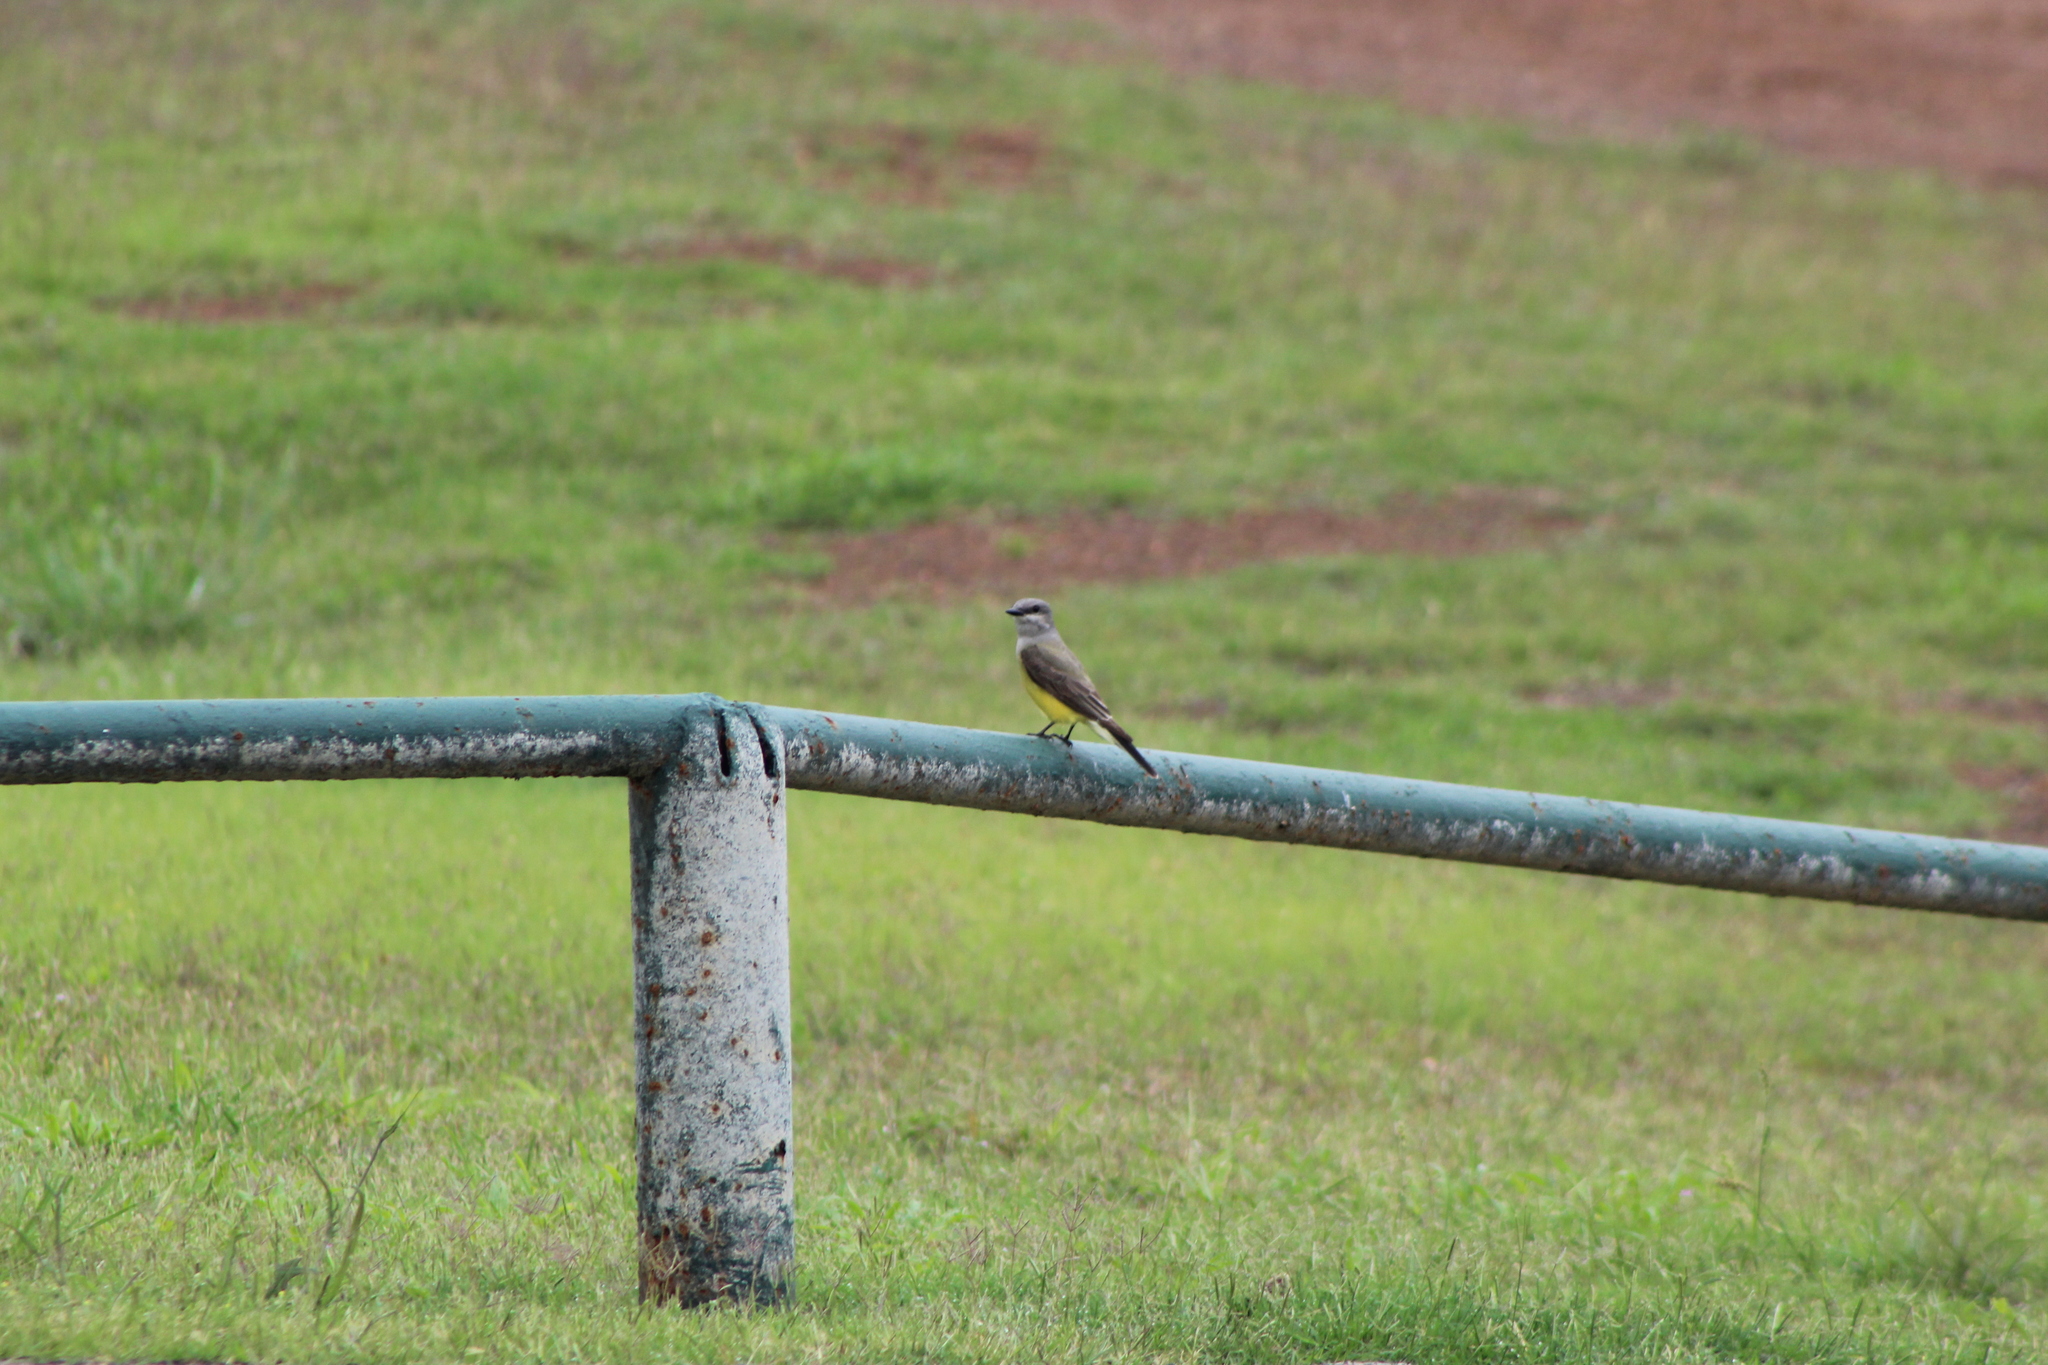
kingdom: Animalia
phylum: Chordata
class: Aves
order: Passeriformes
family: Tyrannidae
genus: Tyrannus
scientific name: Tyrannus verticalis
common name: Western kingbird
